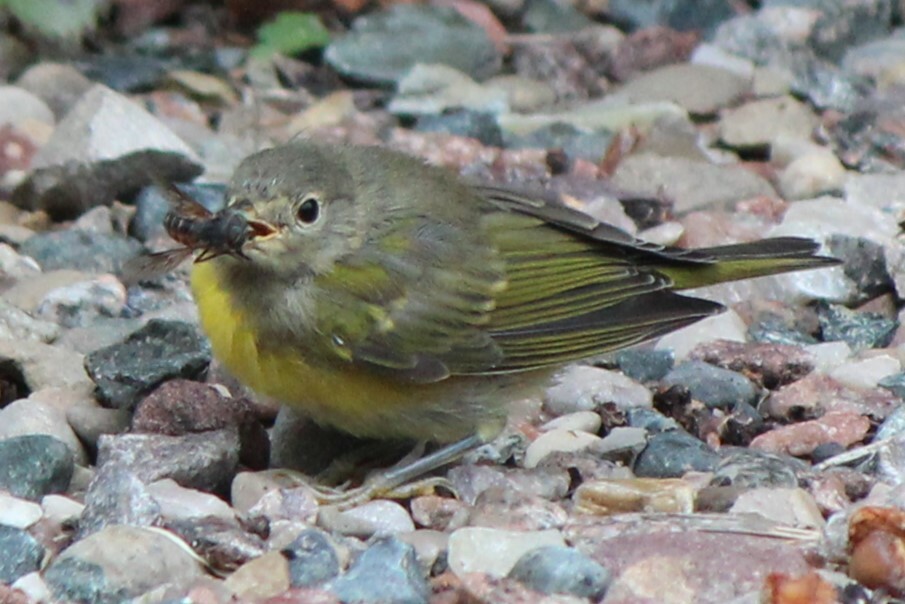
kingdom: Animalia
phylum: Chordata
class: Aves
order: Passeriformes
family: Parulidae
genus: Leiothlypis
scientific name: Leiothlypis ruficapilla
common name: Nashville warbler
